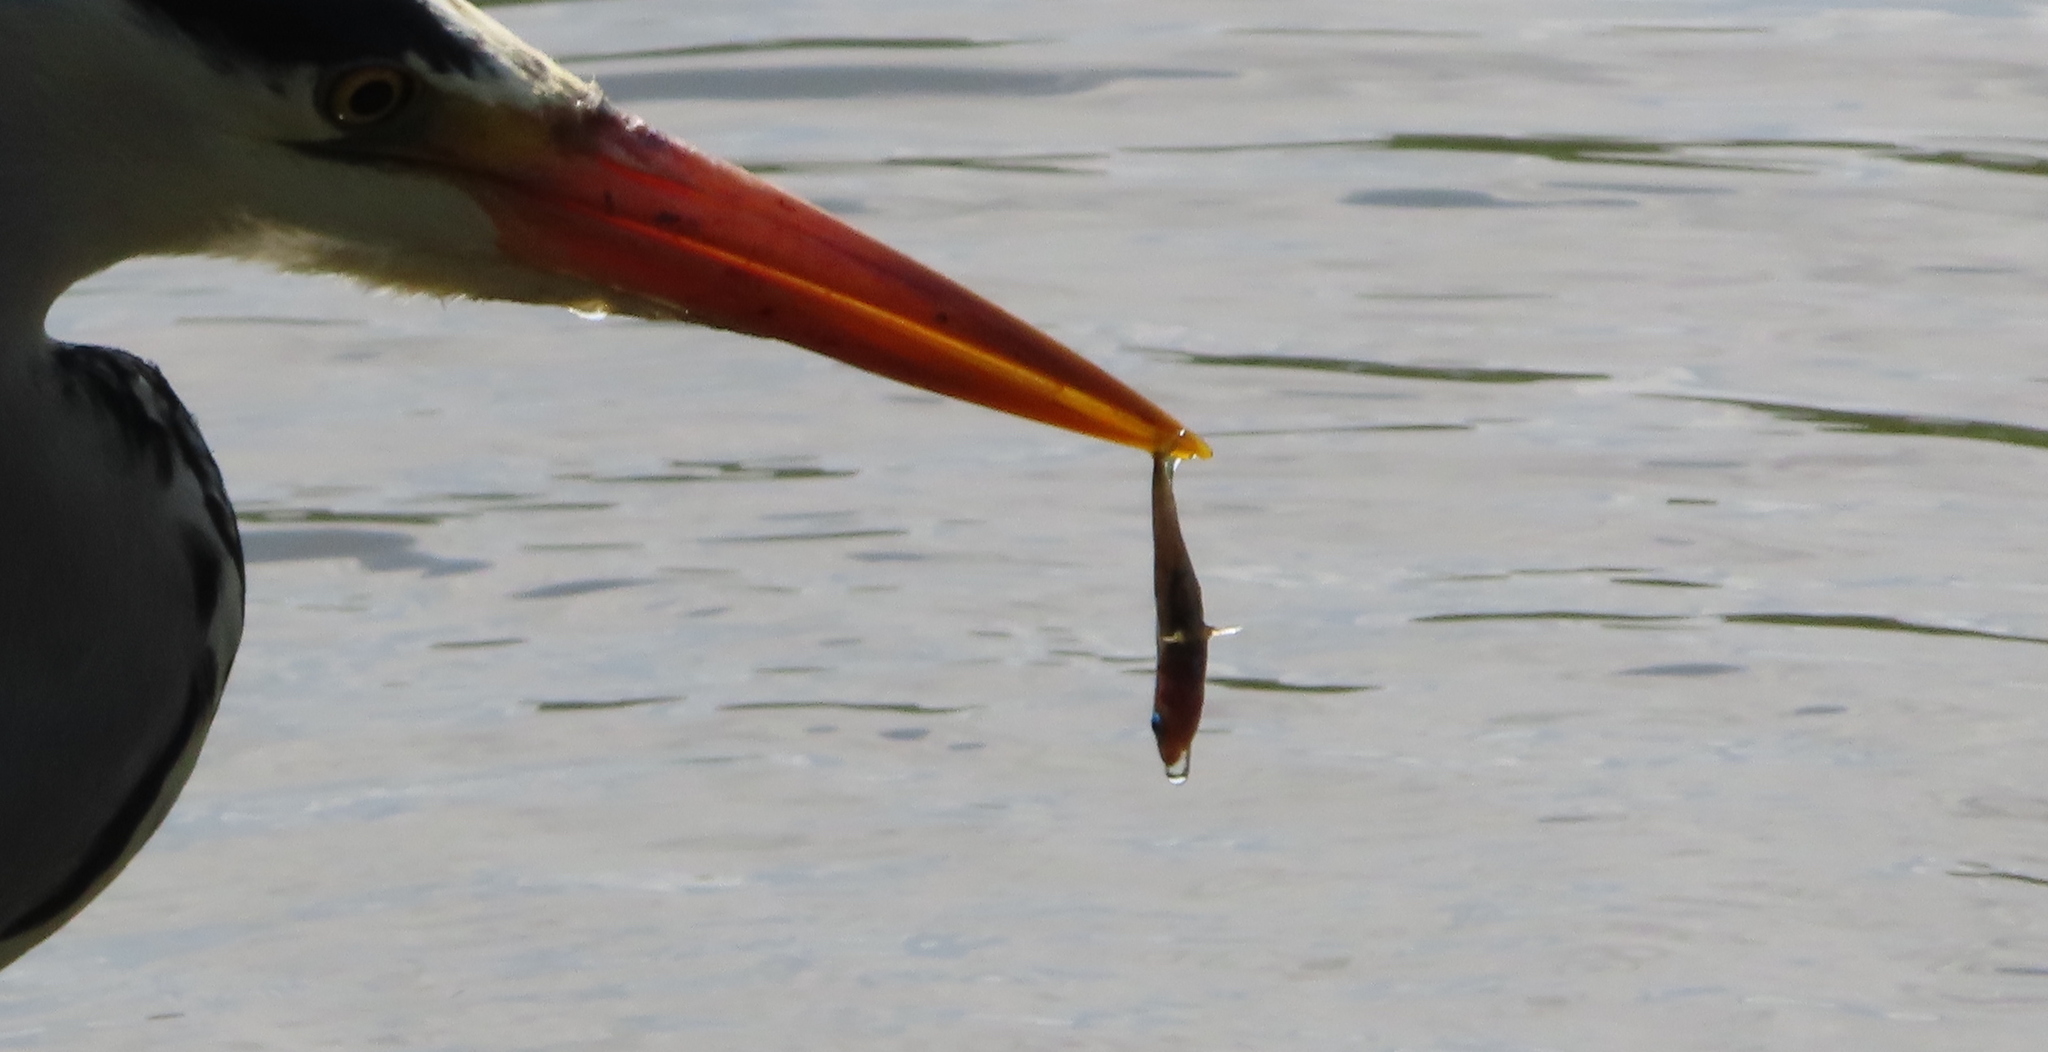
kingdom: Animalia
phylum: Chordata
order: Gasterosteiformes
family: Gasterosteidae
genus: Gasterosteus
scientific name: Gasterosteus aculeatus
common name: Three-spined stickleback
